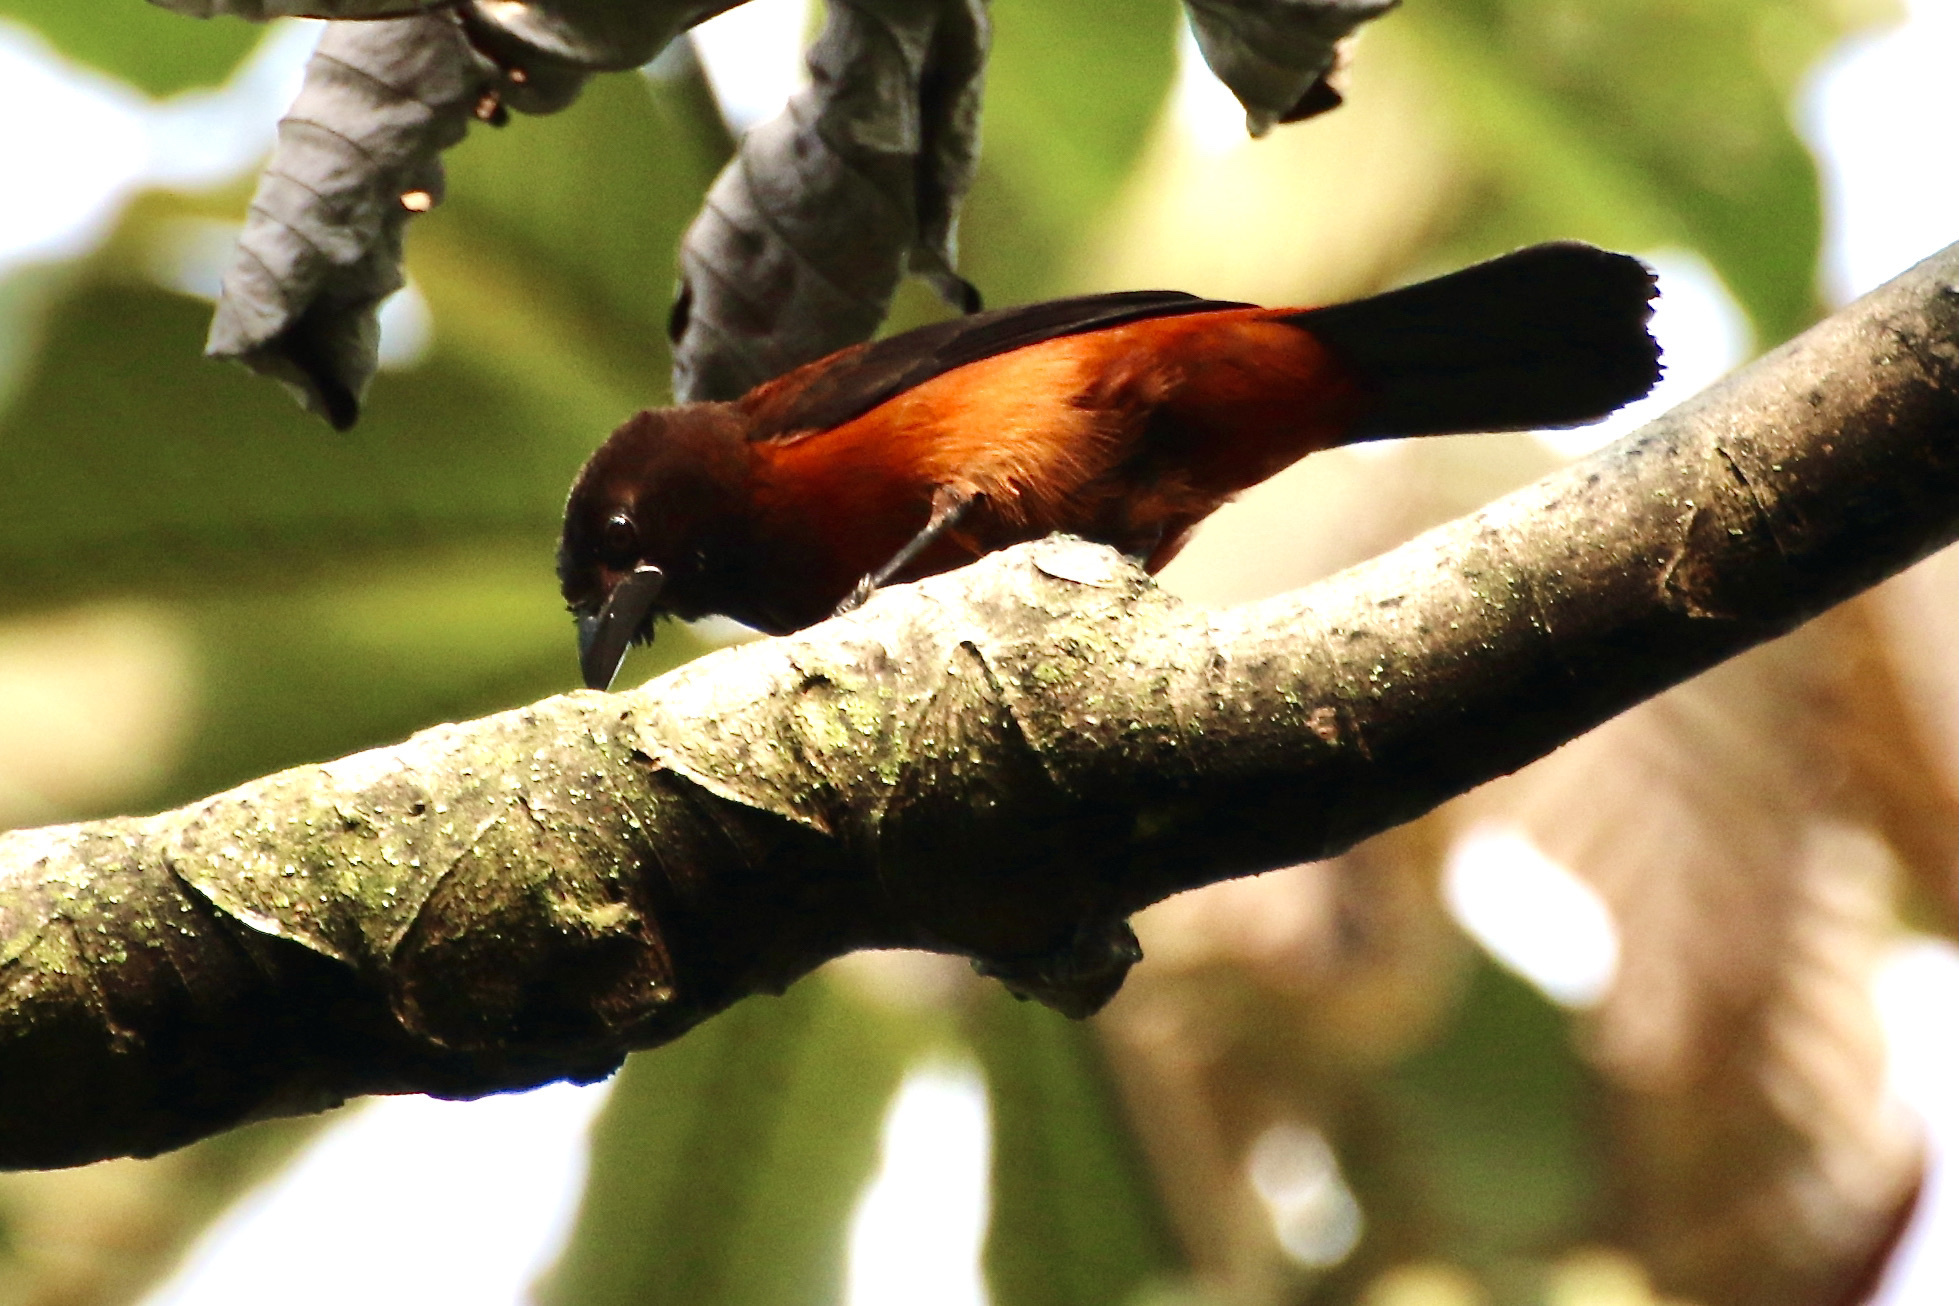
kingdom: Animalia
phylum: Chordata
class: Aves
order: Passeriformes
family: Thraupidae
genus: Ramphocelus
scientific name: Ramphocelus dimidiatus
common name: Crimson-backed tanager
